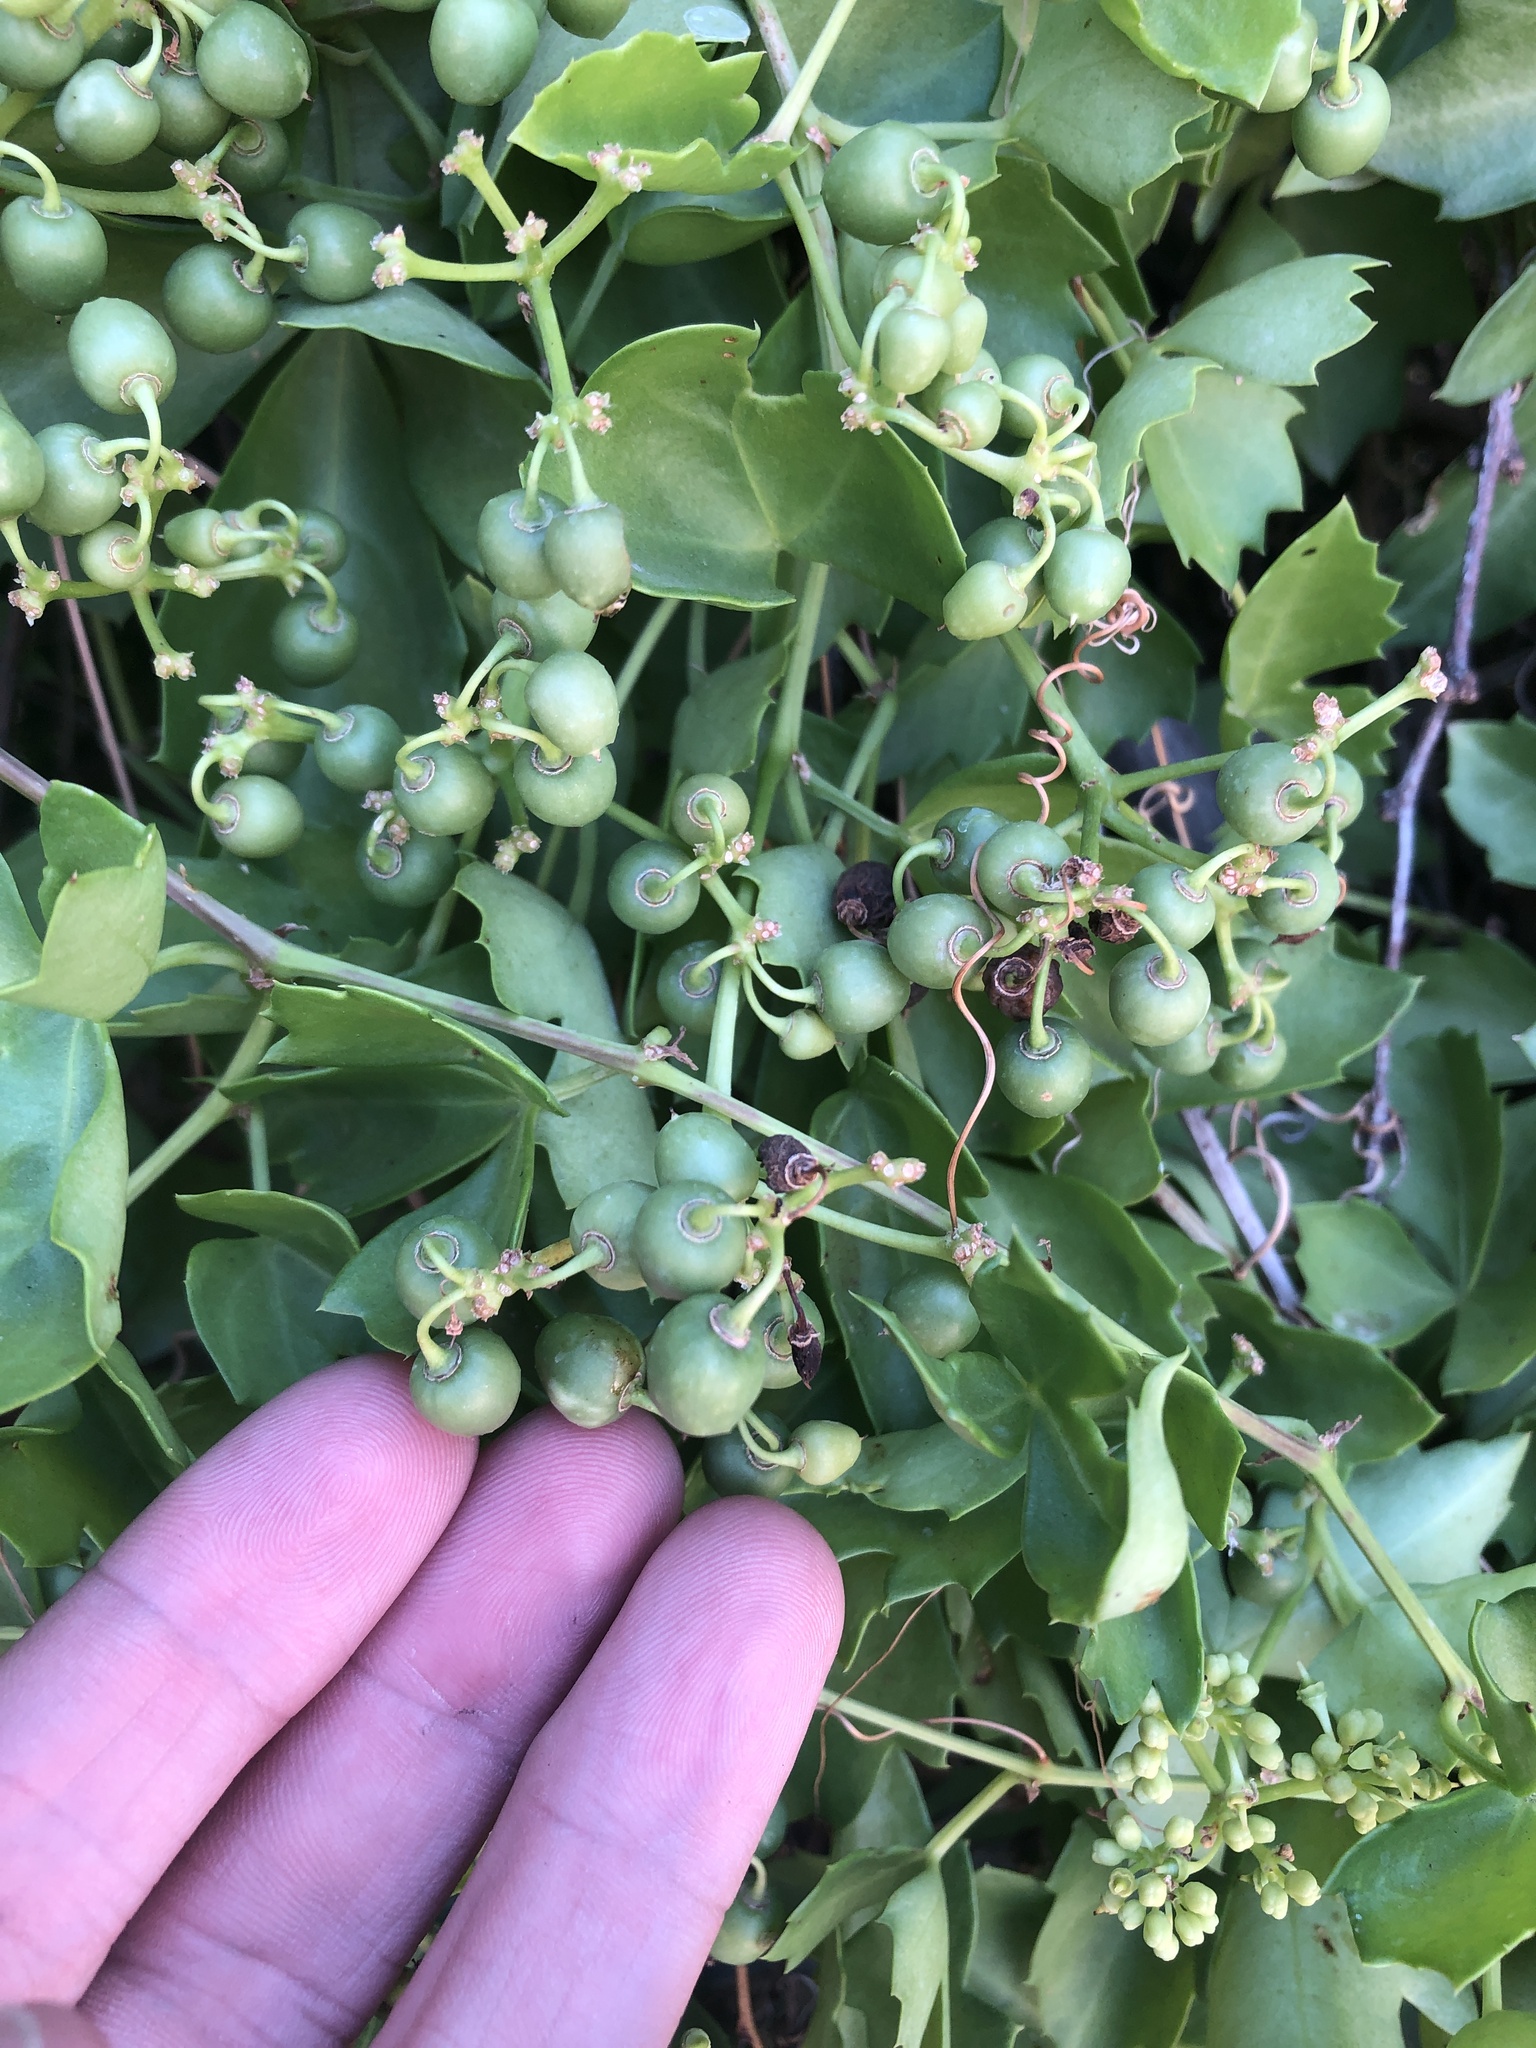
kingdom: Plantae
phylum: Tracheophyta
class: Magnoliopsida
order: Vitales
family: Vitaceae
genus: Cissus
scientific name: Cissus trifoliata
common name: Vine-sorrel
